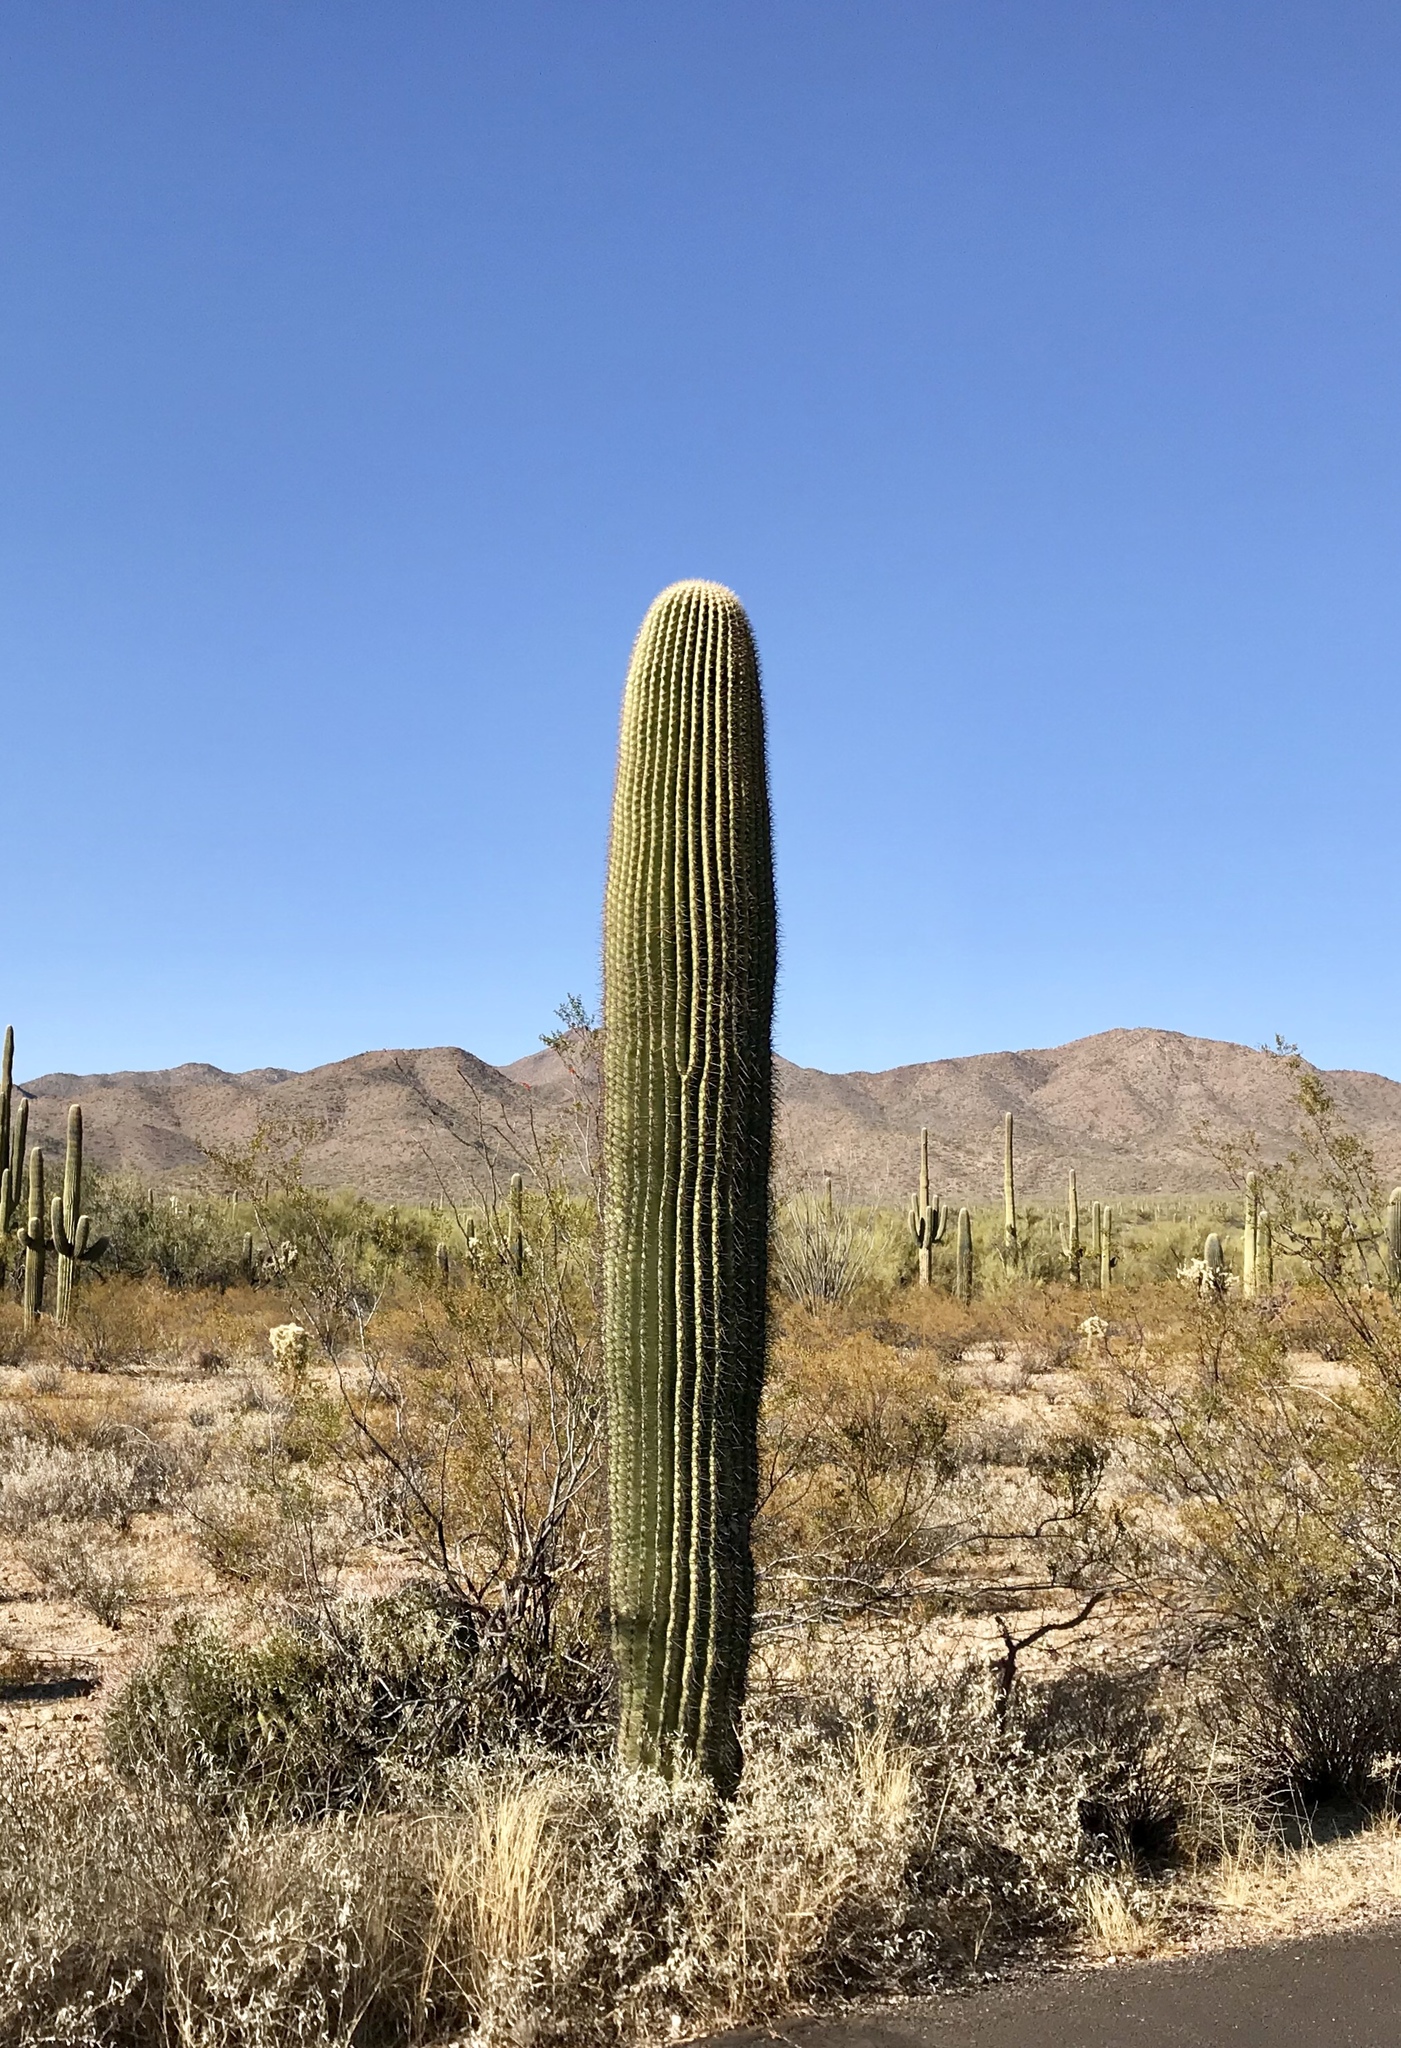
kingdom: Plantae
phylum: Tracheophyta
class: Magnoliopsida
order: Caryophyllales
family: Cactaceae
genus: Carnegiea
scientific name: Carnegiea gigantea
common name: Saguaro
